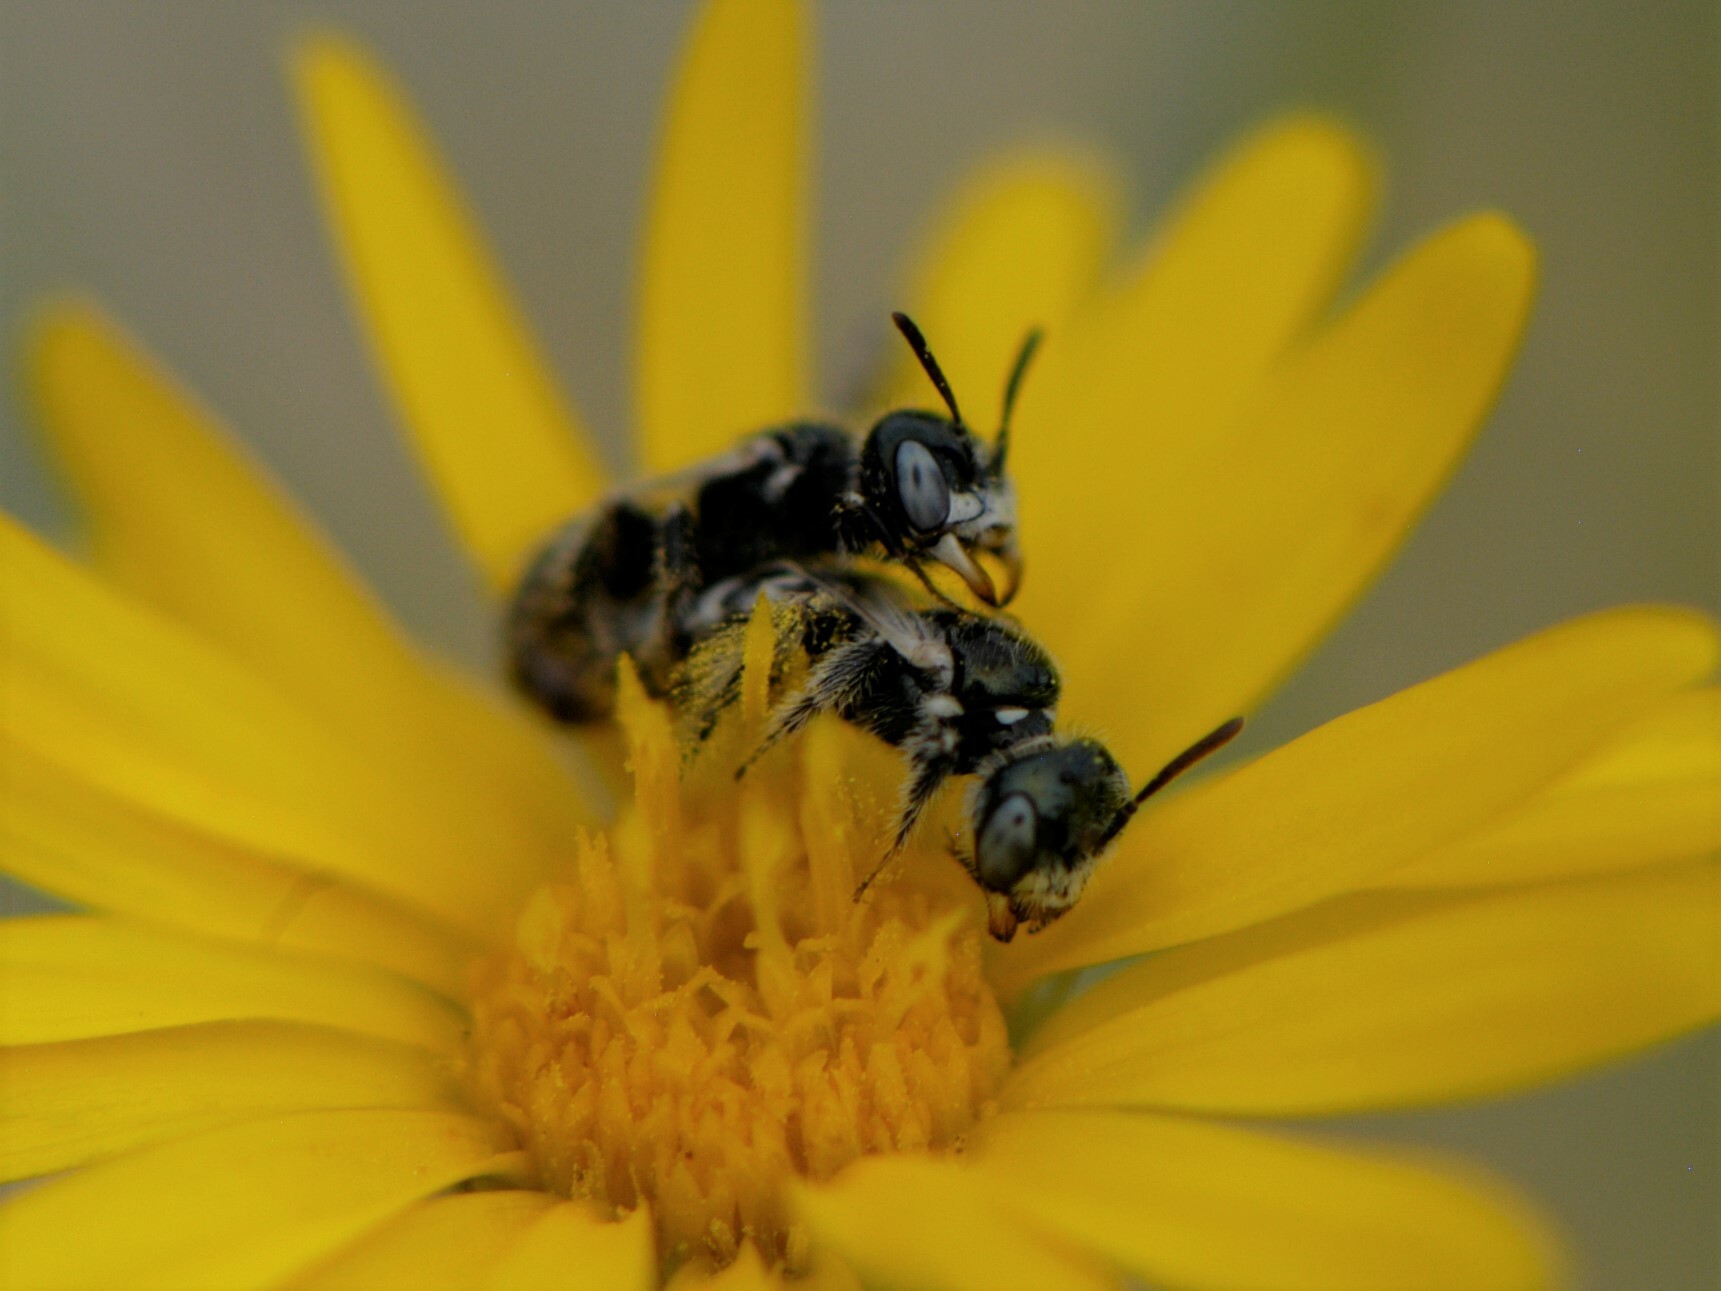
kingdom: Animalia
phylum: Arthropoda
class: Insecta
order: Hymenoptera
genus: Pentaperdita
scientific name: Pentaperdita
